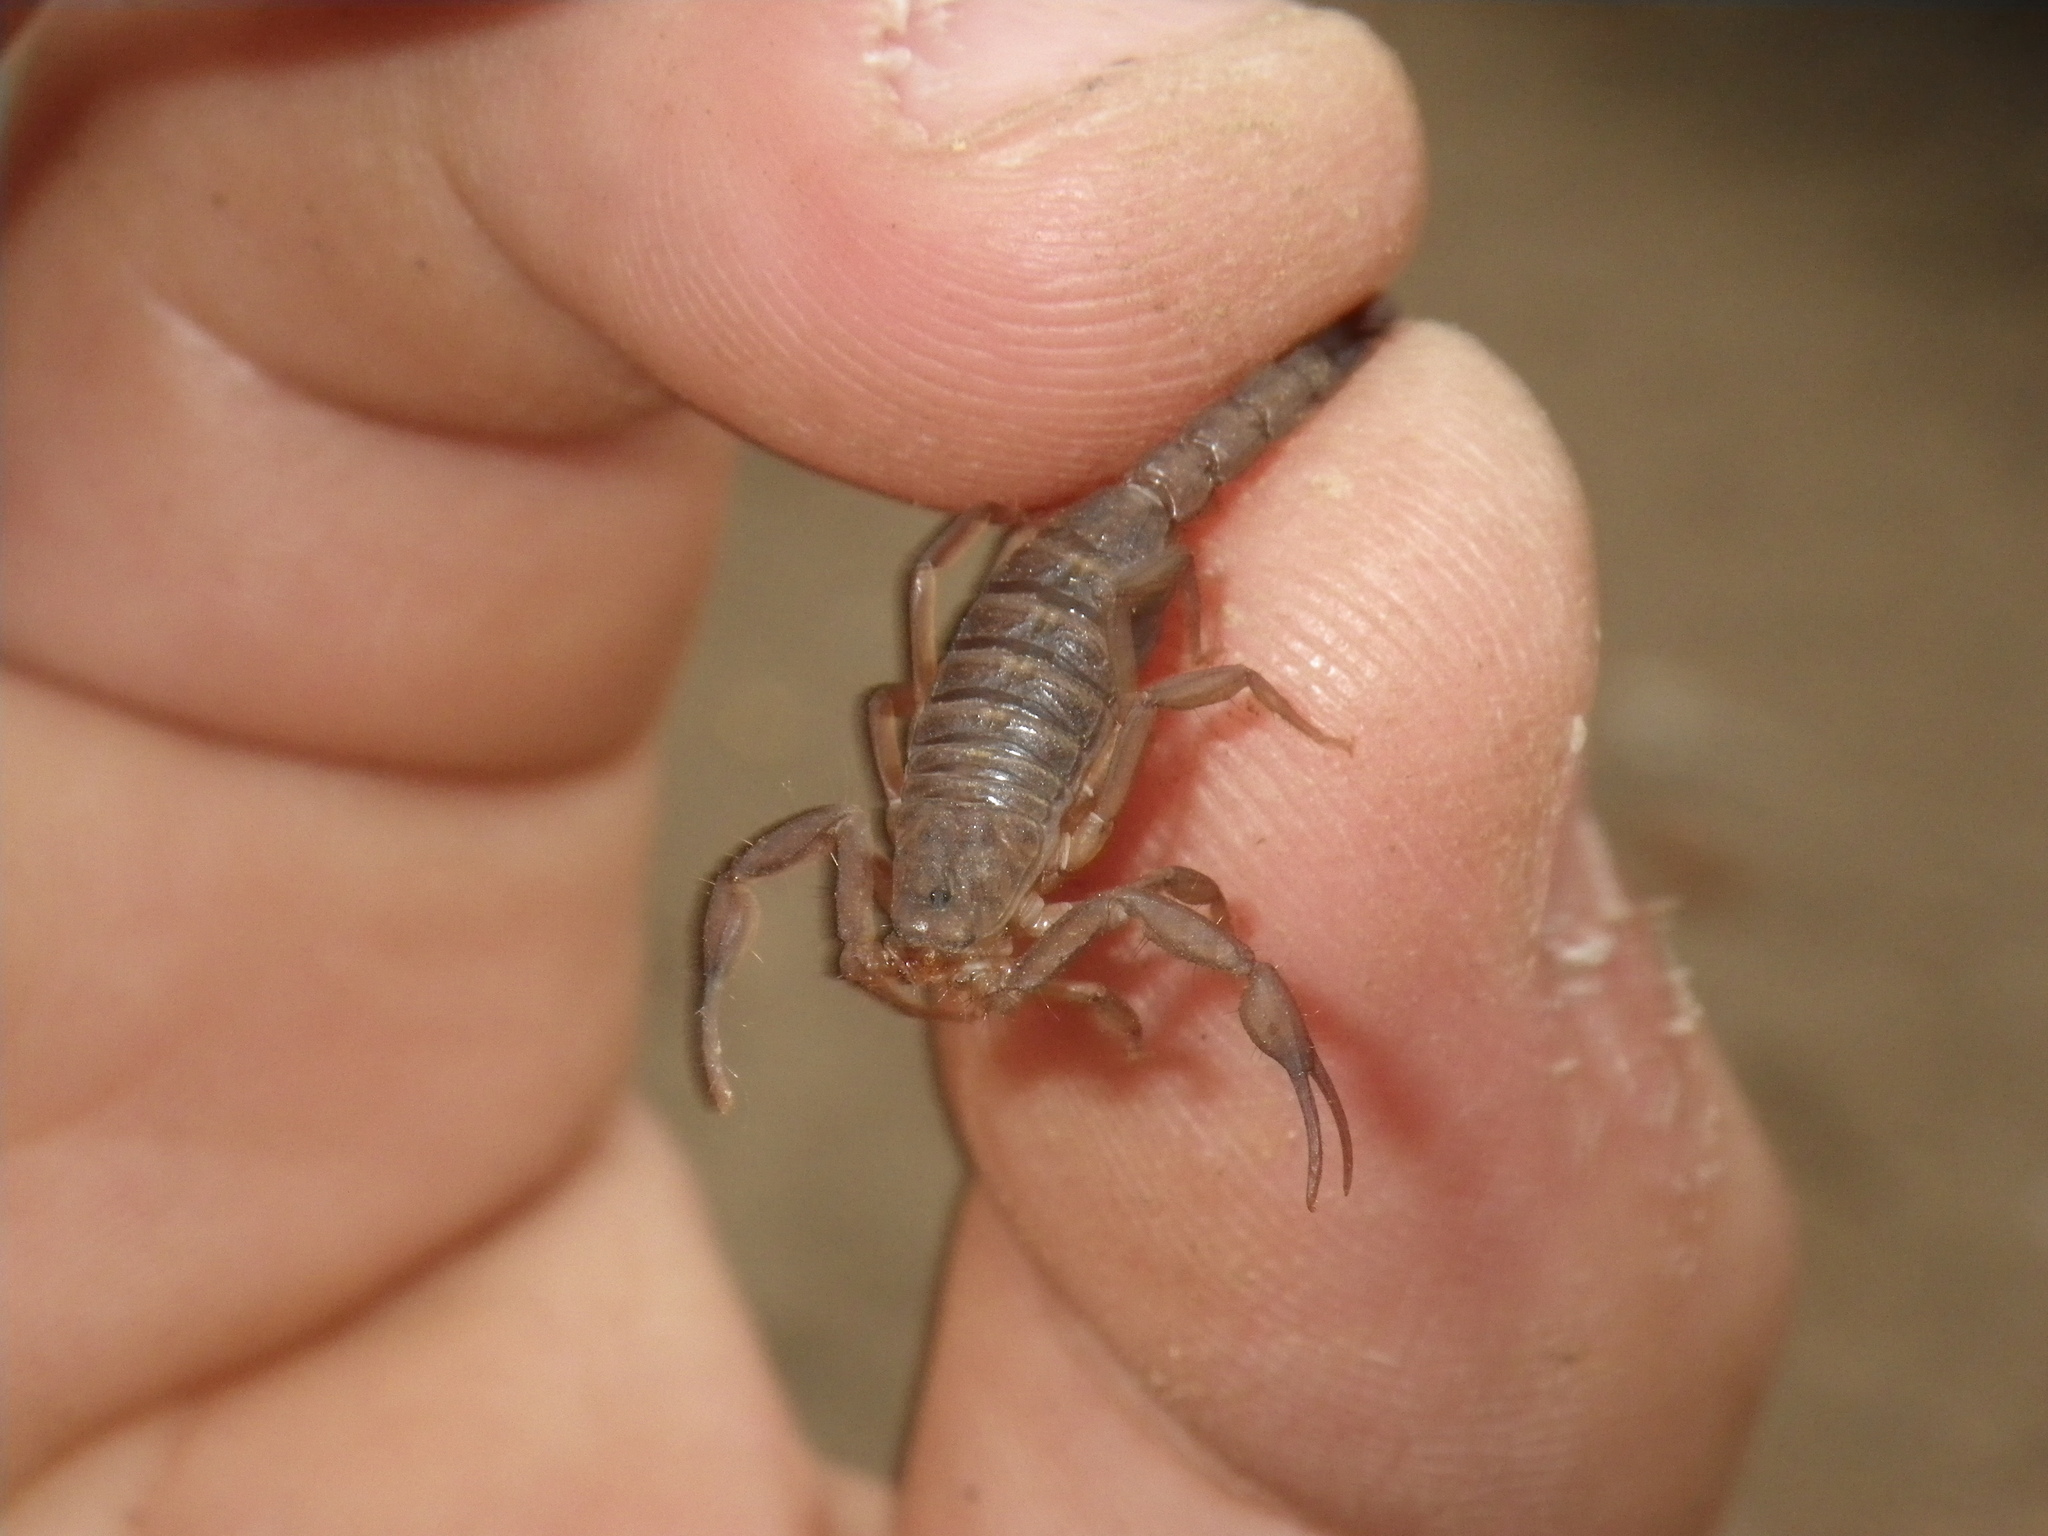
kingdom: Animalia
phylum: Arthropoda
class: Arachnida
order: Scorpiones
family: Vaejovidae
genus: Serradigitus
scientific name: Serradigitus gertschi
